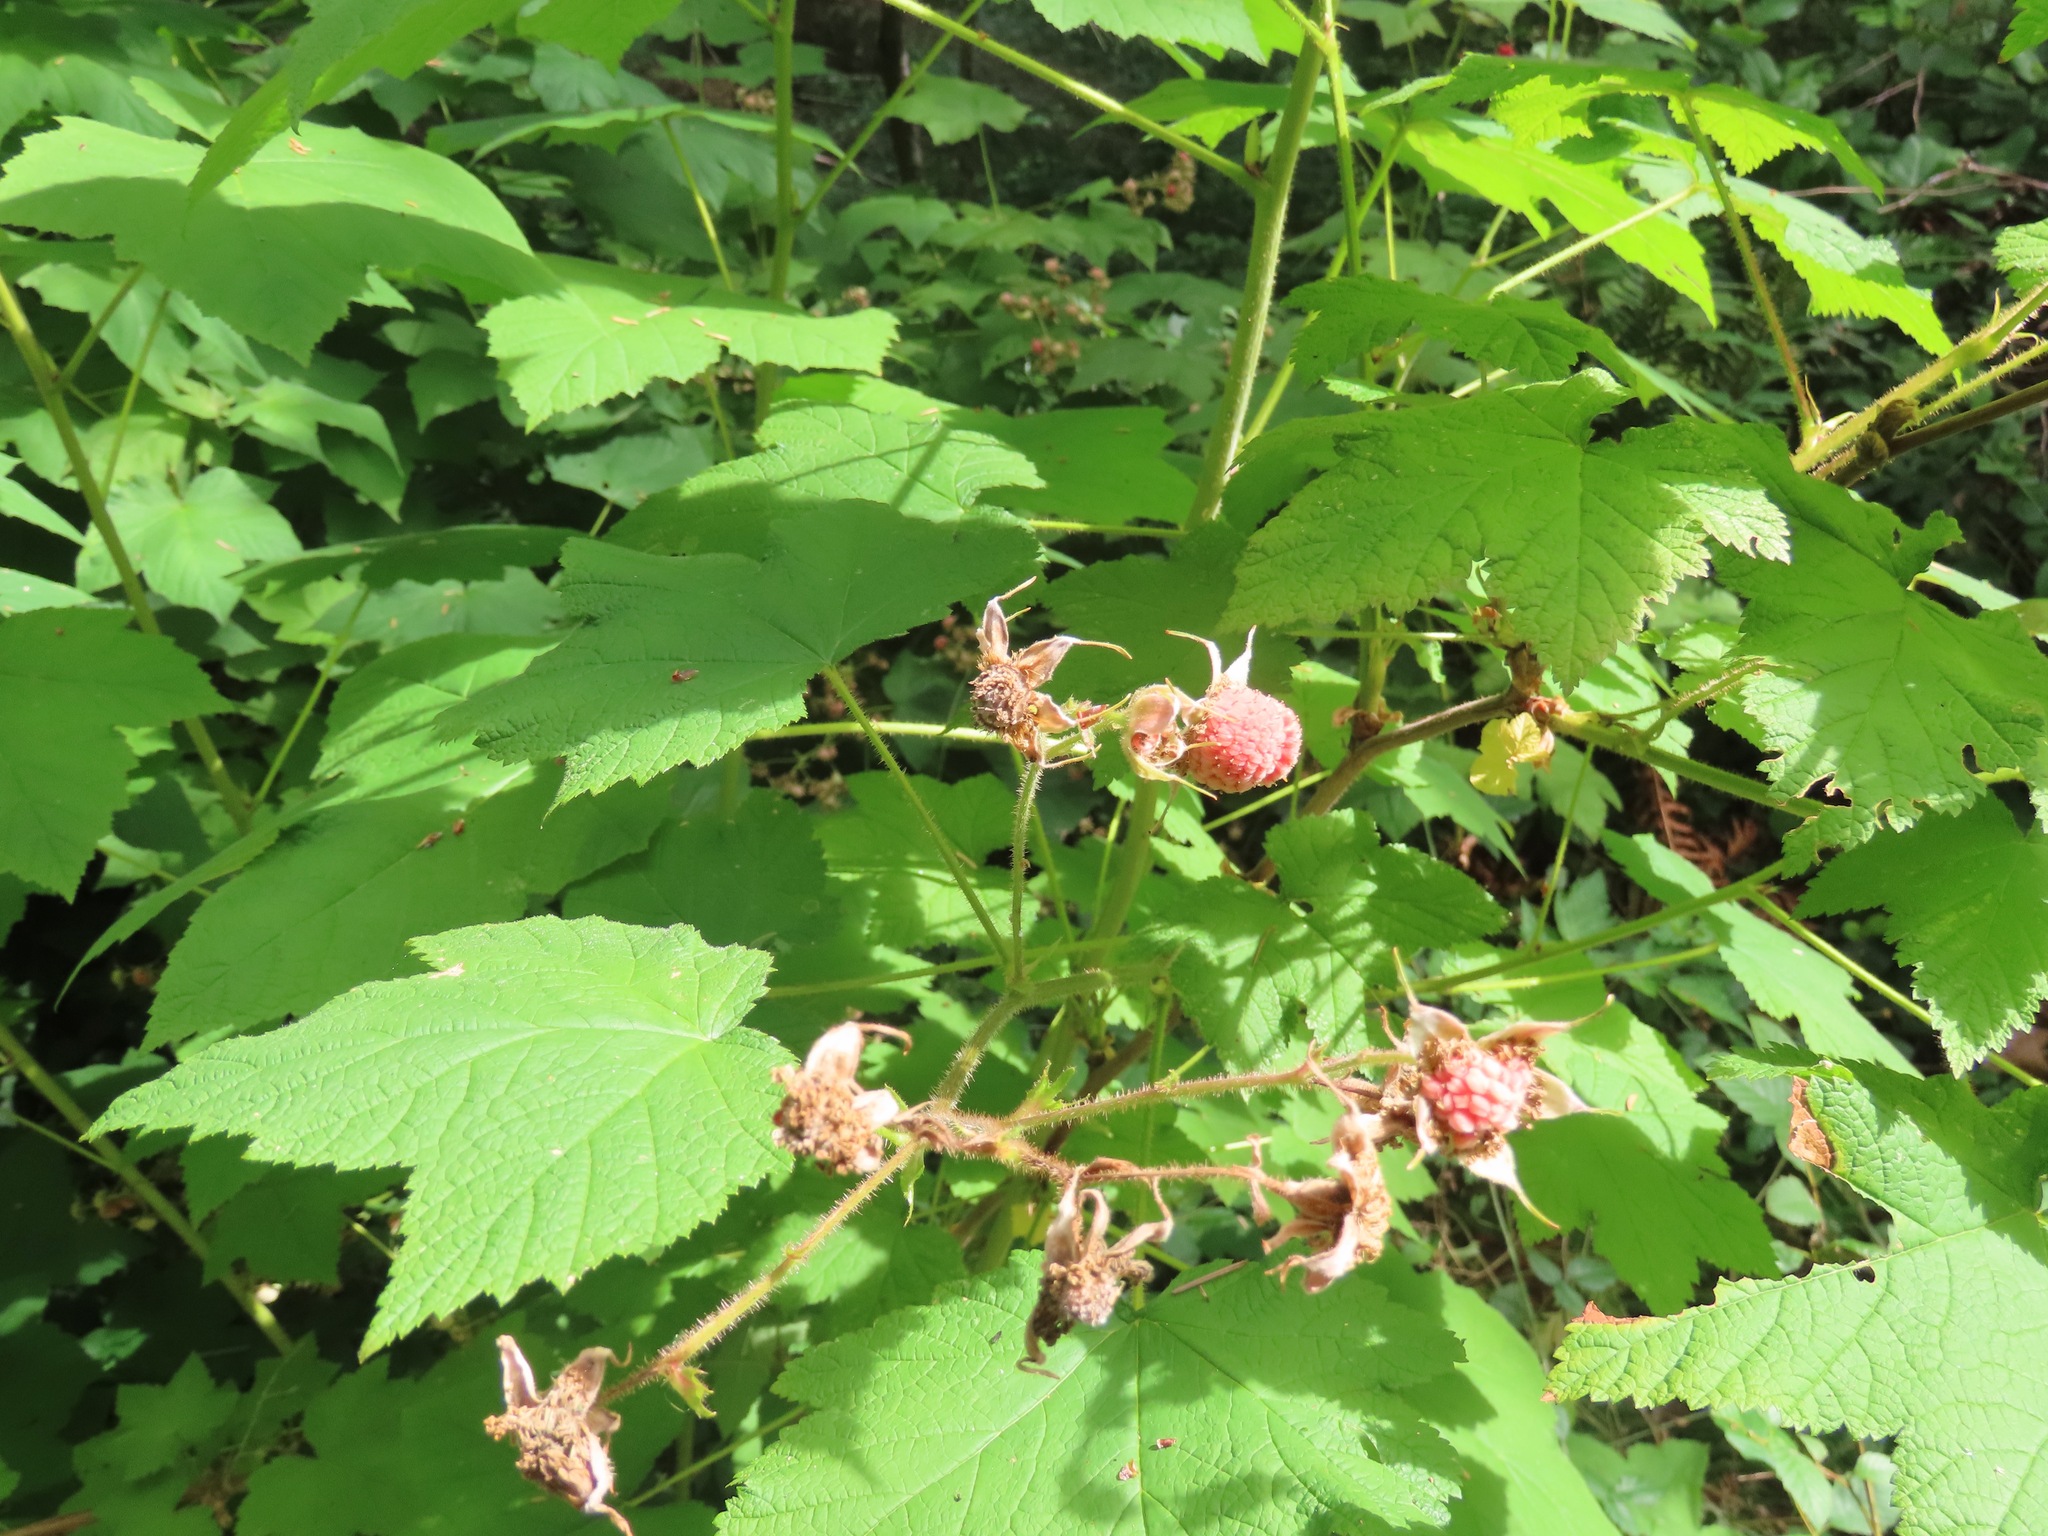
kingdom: Plantae
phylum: Tracheophyta
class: Magnoliopsida
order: Rosales
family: Rosaceae
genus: Rubus
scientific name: Rubus parviflorus
